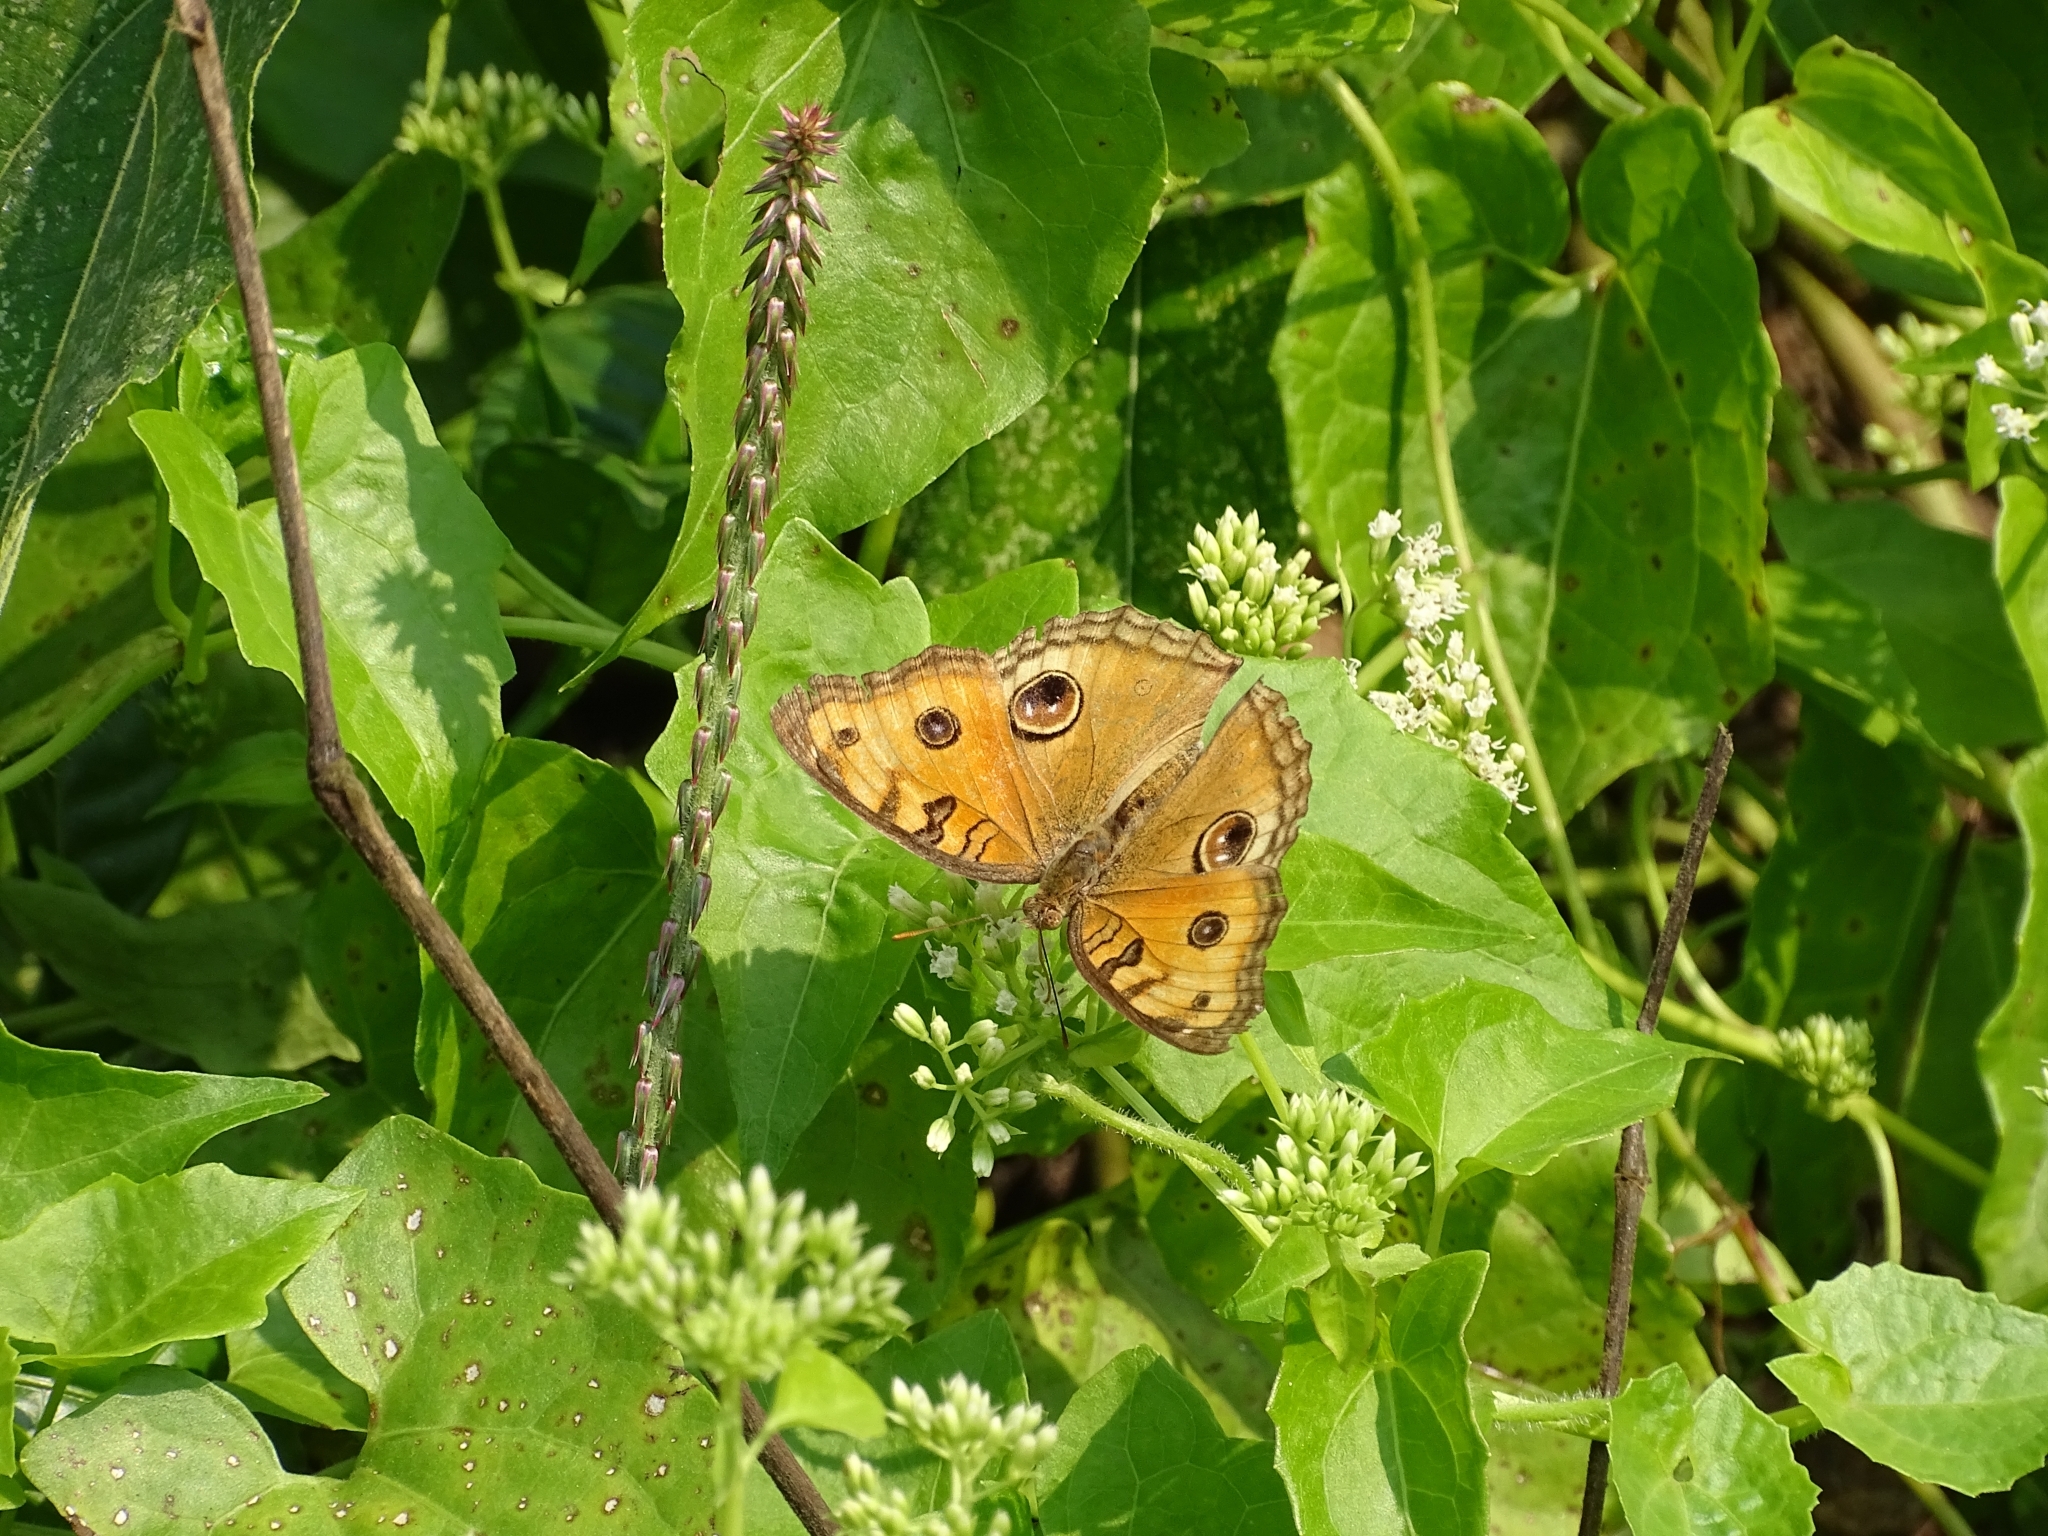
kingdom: Animalia
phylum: Arthropoda
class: Insecta
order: Lepidoptera
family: Nymphalidae
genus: Junonia
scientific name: Junonia almana
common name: Peacock pansy
